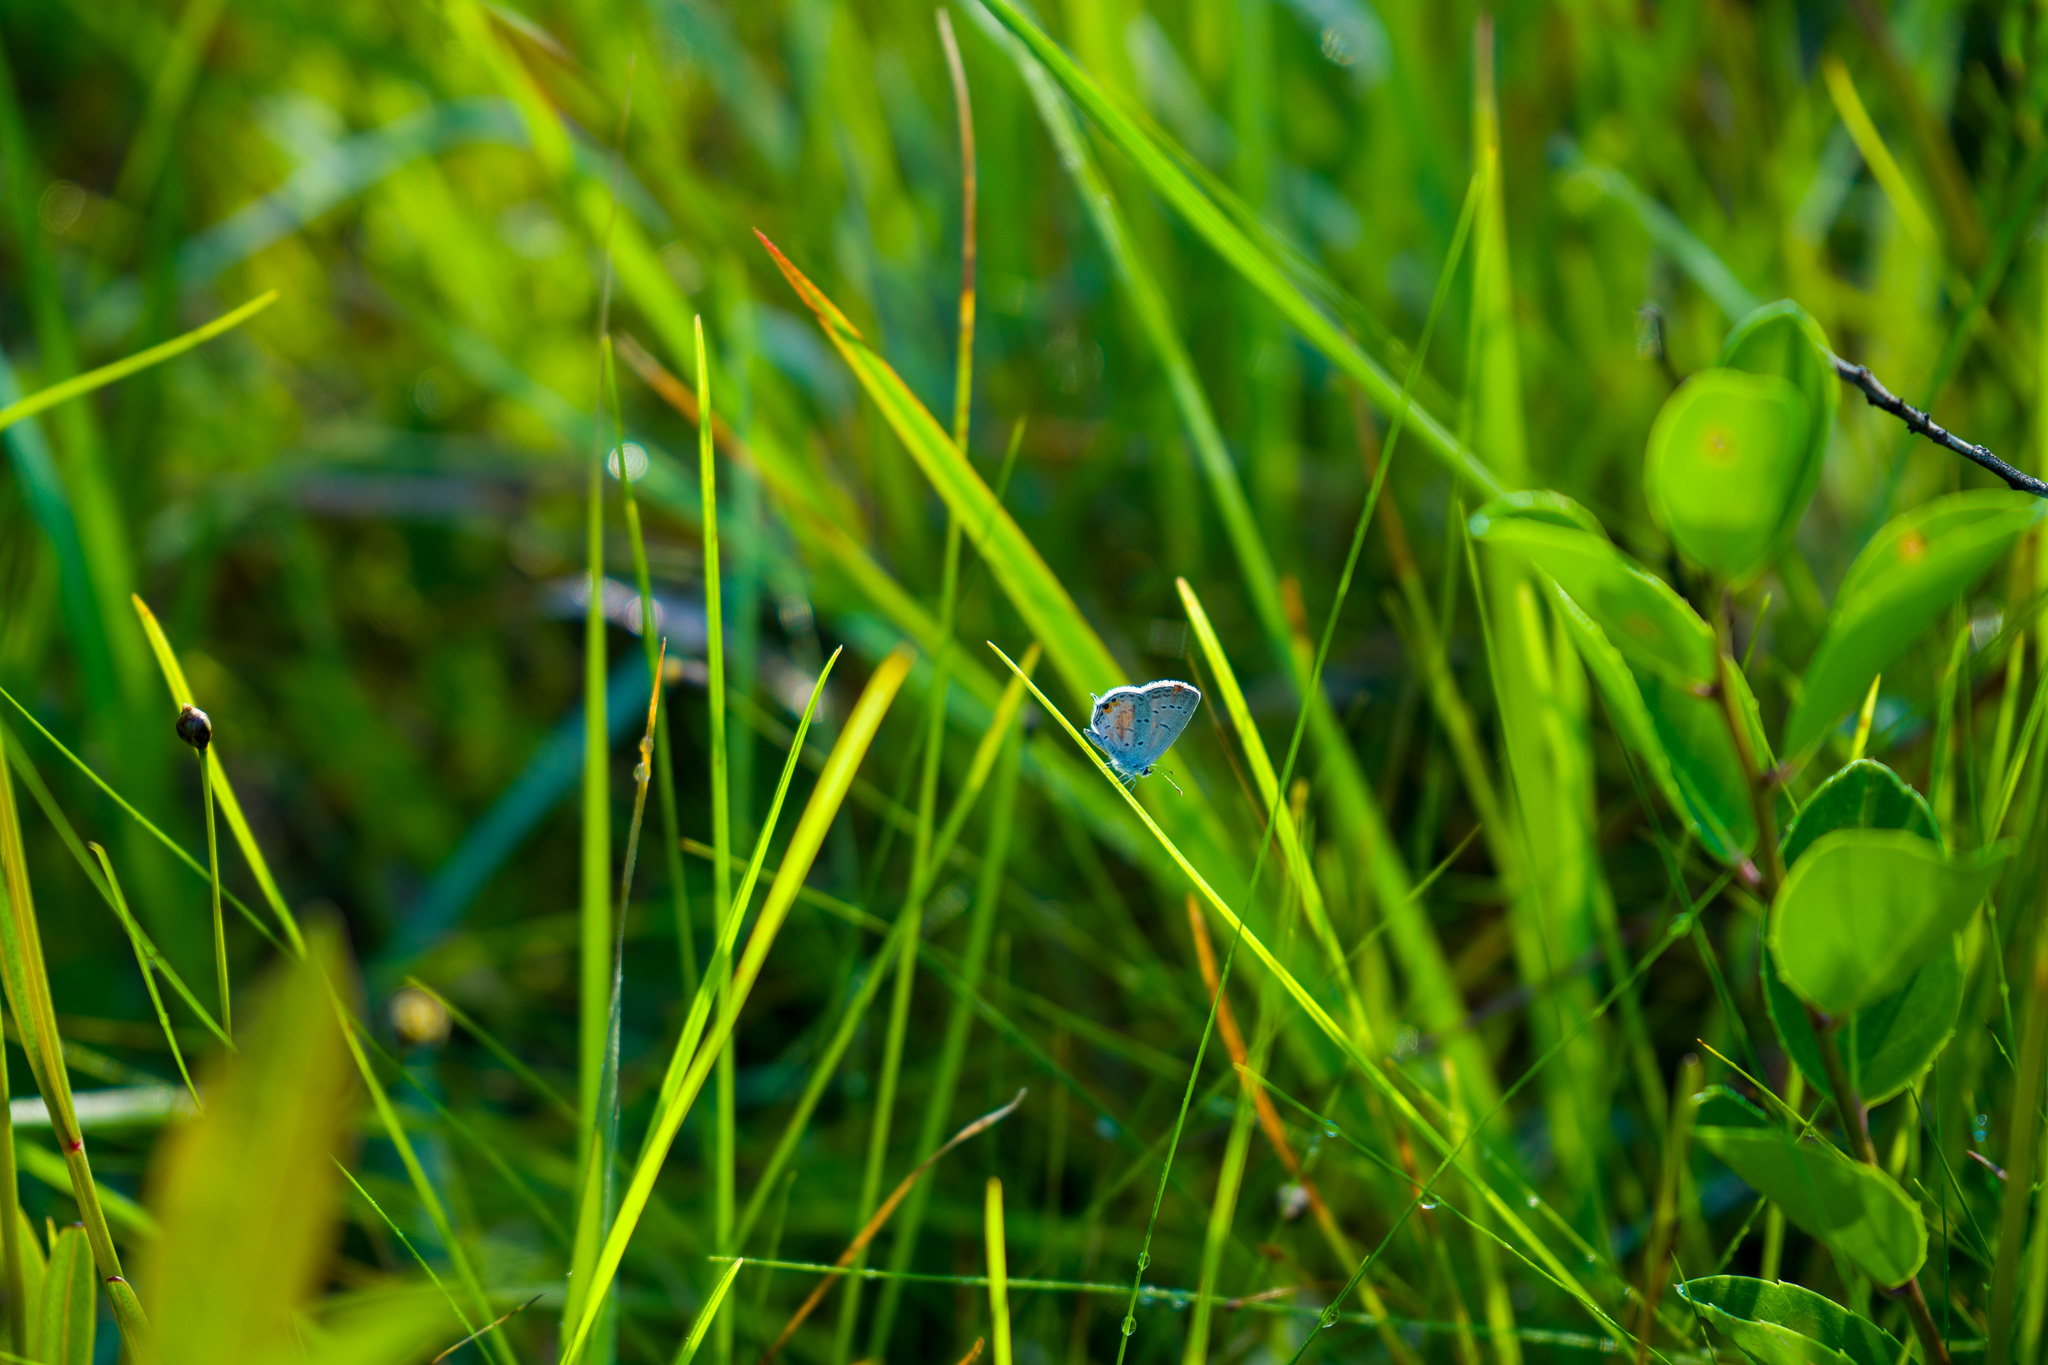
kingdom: Animalia
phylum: Arthropoda
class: Insecta
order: Lepidoptera
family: Lycaenidae
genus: Elkalyce
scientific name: Elkalyce comyntas
